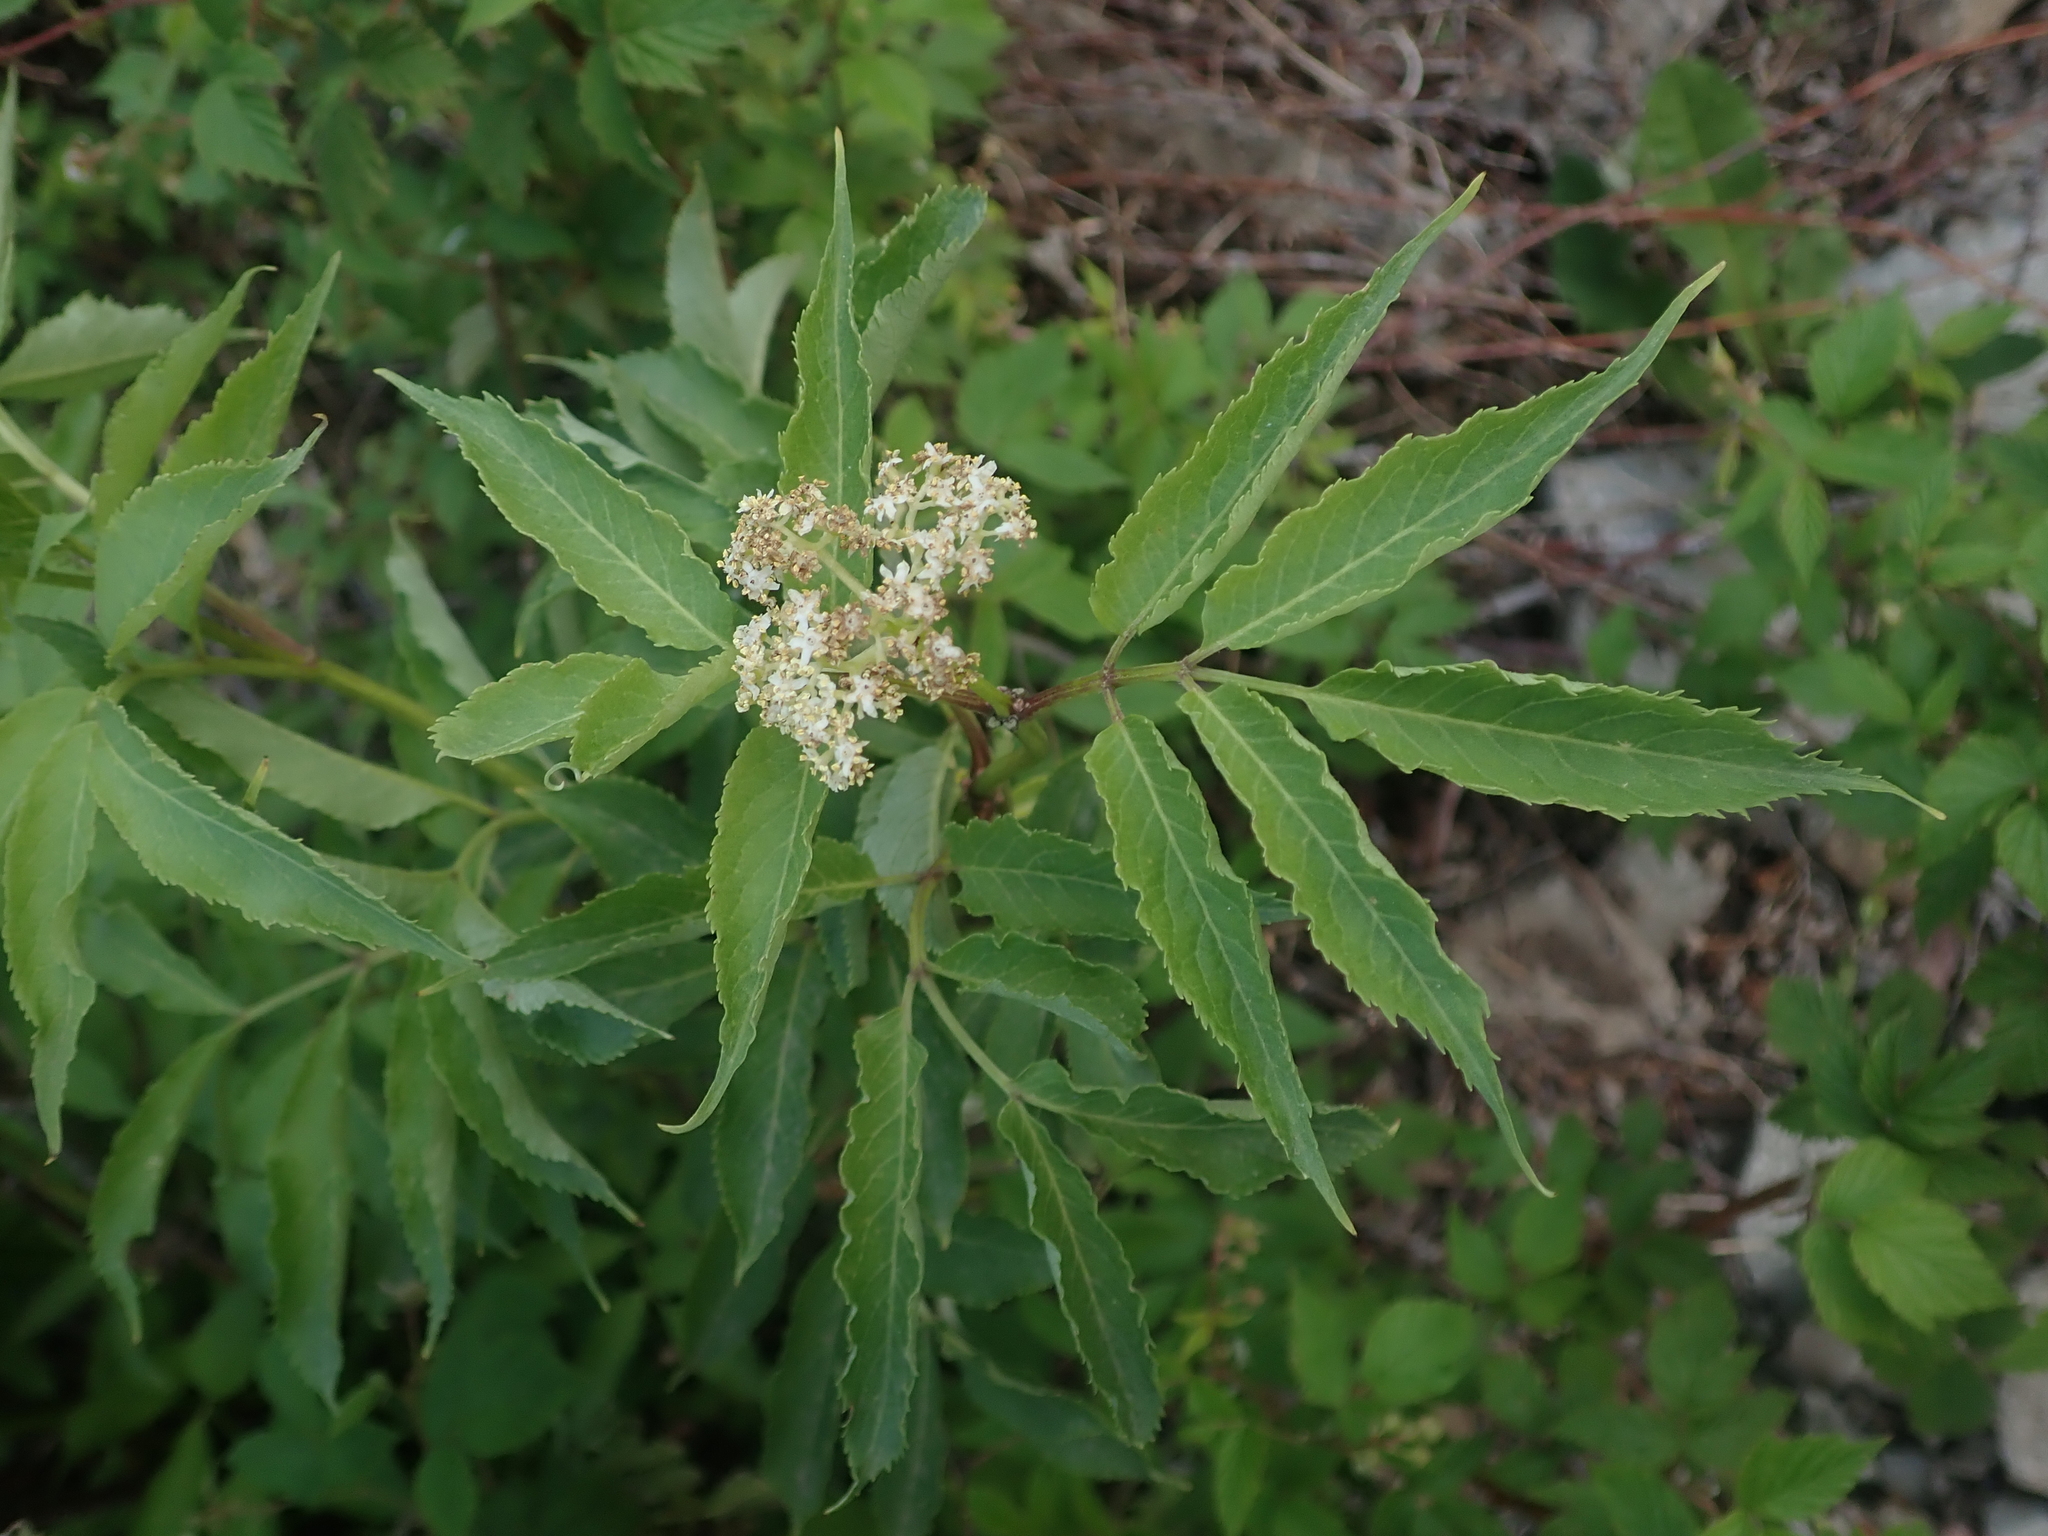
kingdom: Plantae
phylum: Tracheophyta
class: Magnoliopsida
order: Dipsacales
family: Viburnaceae
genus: Sambucus
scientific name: Sambucus racemosa
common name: Red-berried elder
